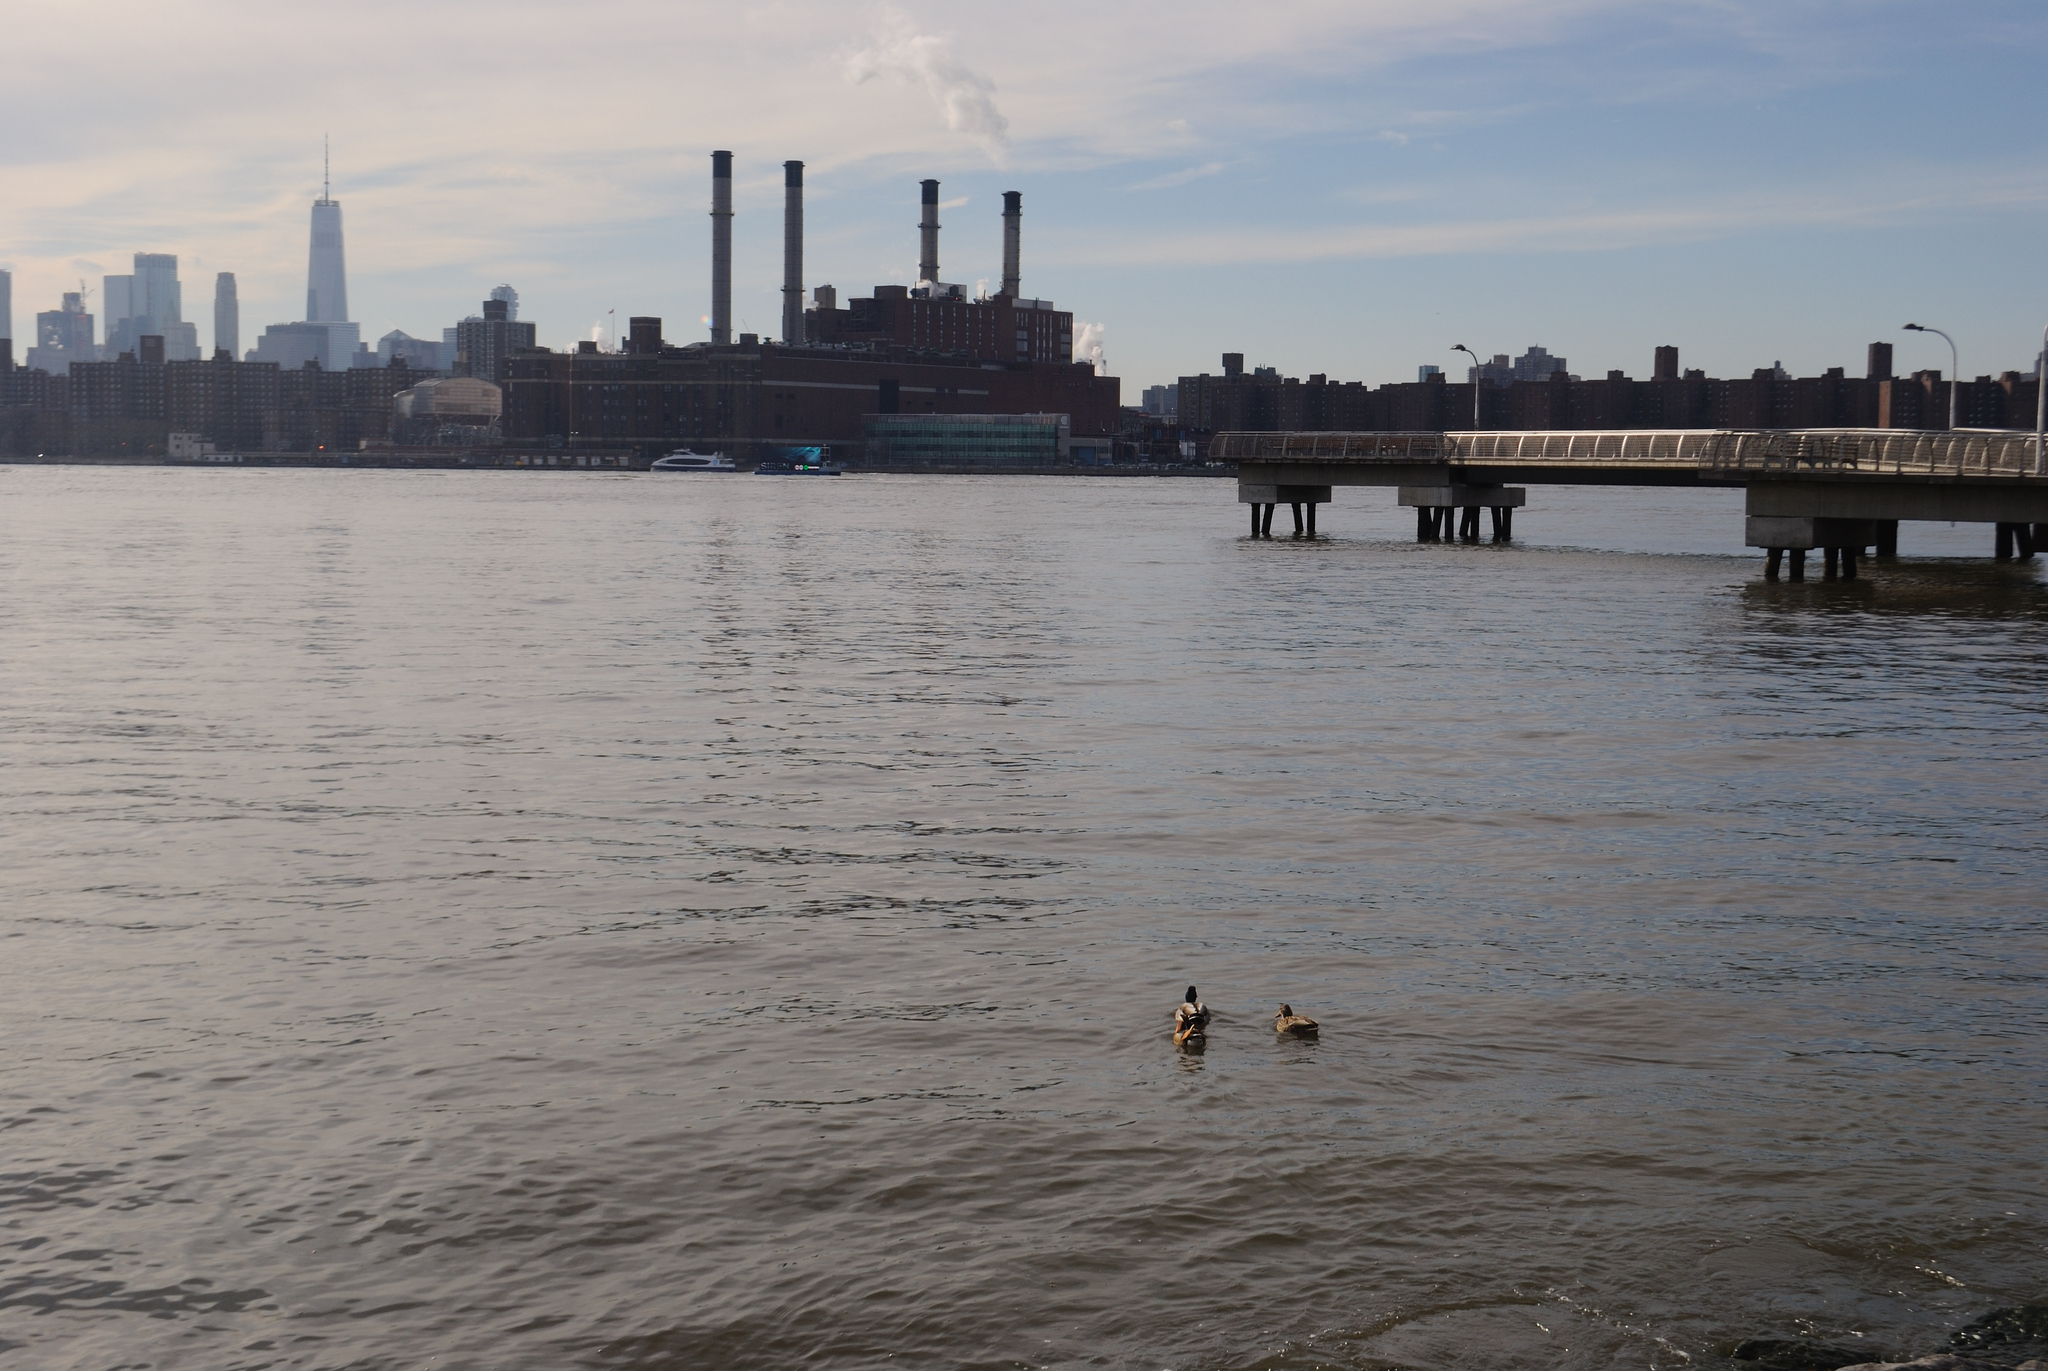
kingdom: Animalia
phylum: Chordata
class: Aves
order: Anseriformes
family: Anatidae
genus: Aix
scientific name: Aix galericulata
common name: Mandarin duck
